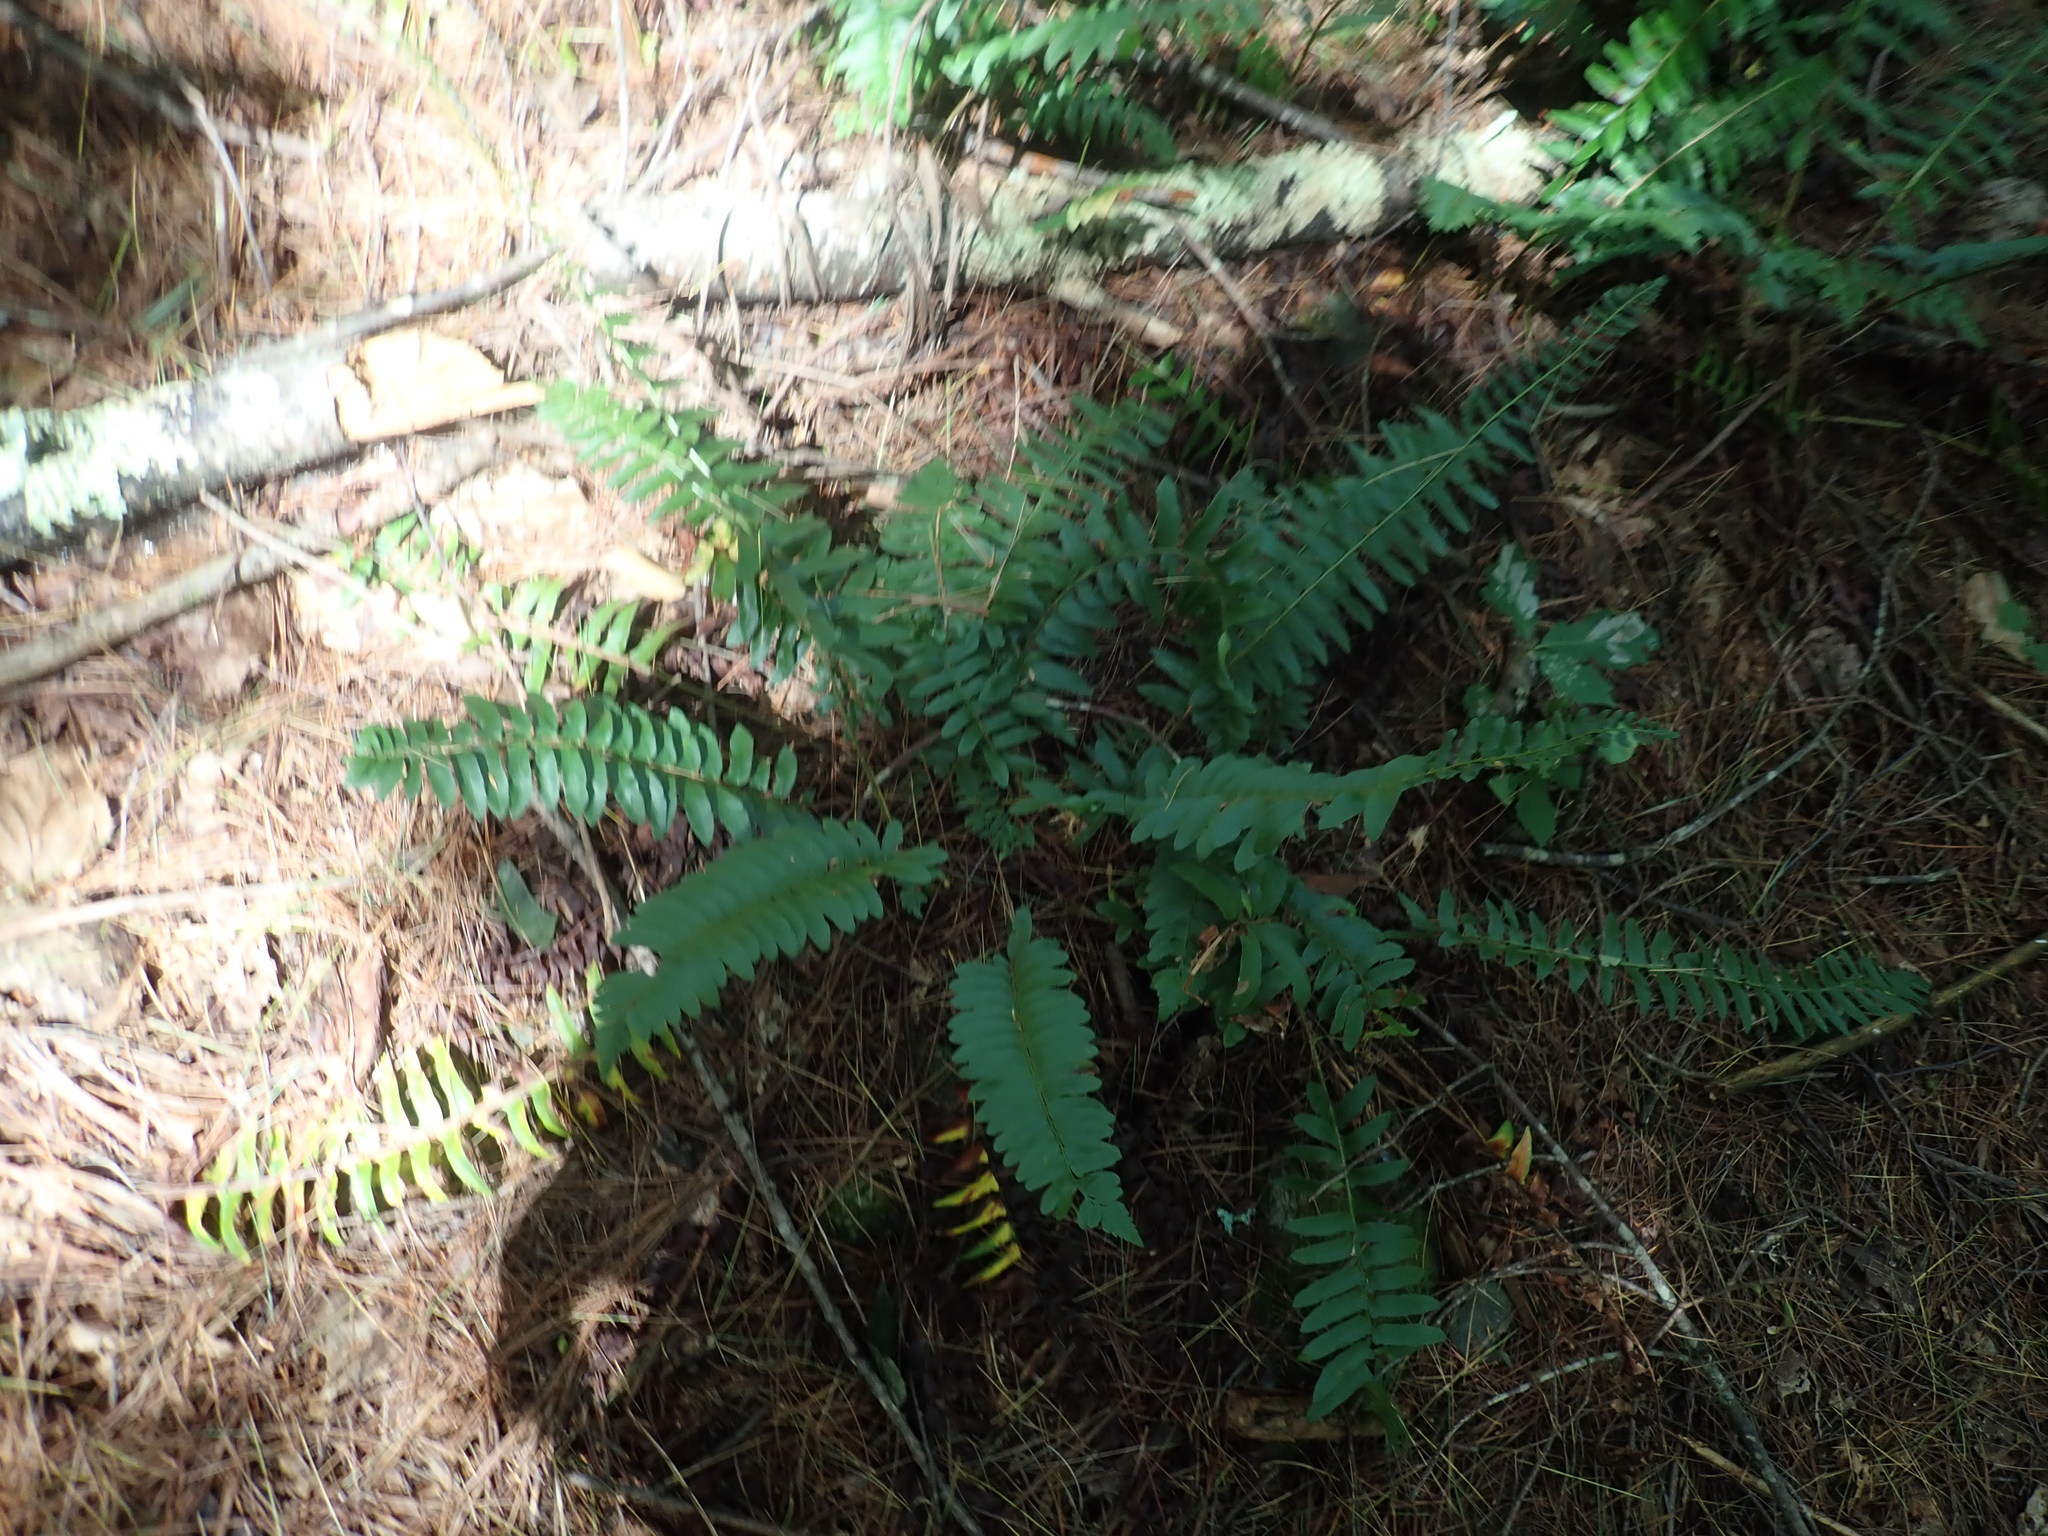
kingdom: Plantae
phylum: Tracheophyta
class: Polypodiopsida
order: Polypodiales
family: Dryopteridaceae
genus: Polystichum
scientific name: Polystichum acrostichoides
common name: Christmas fern
